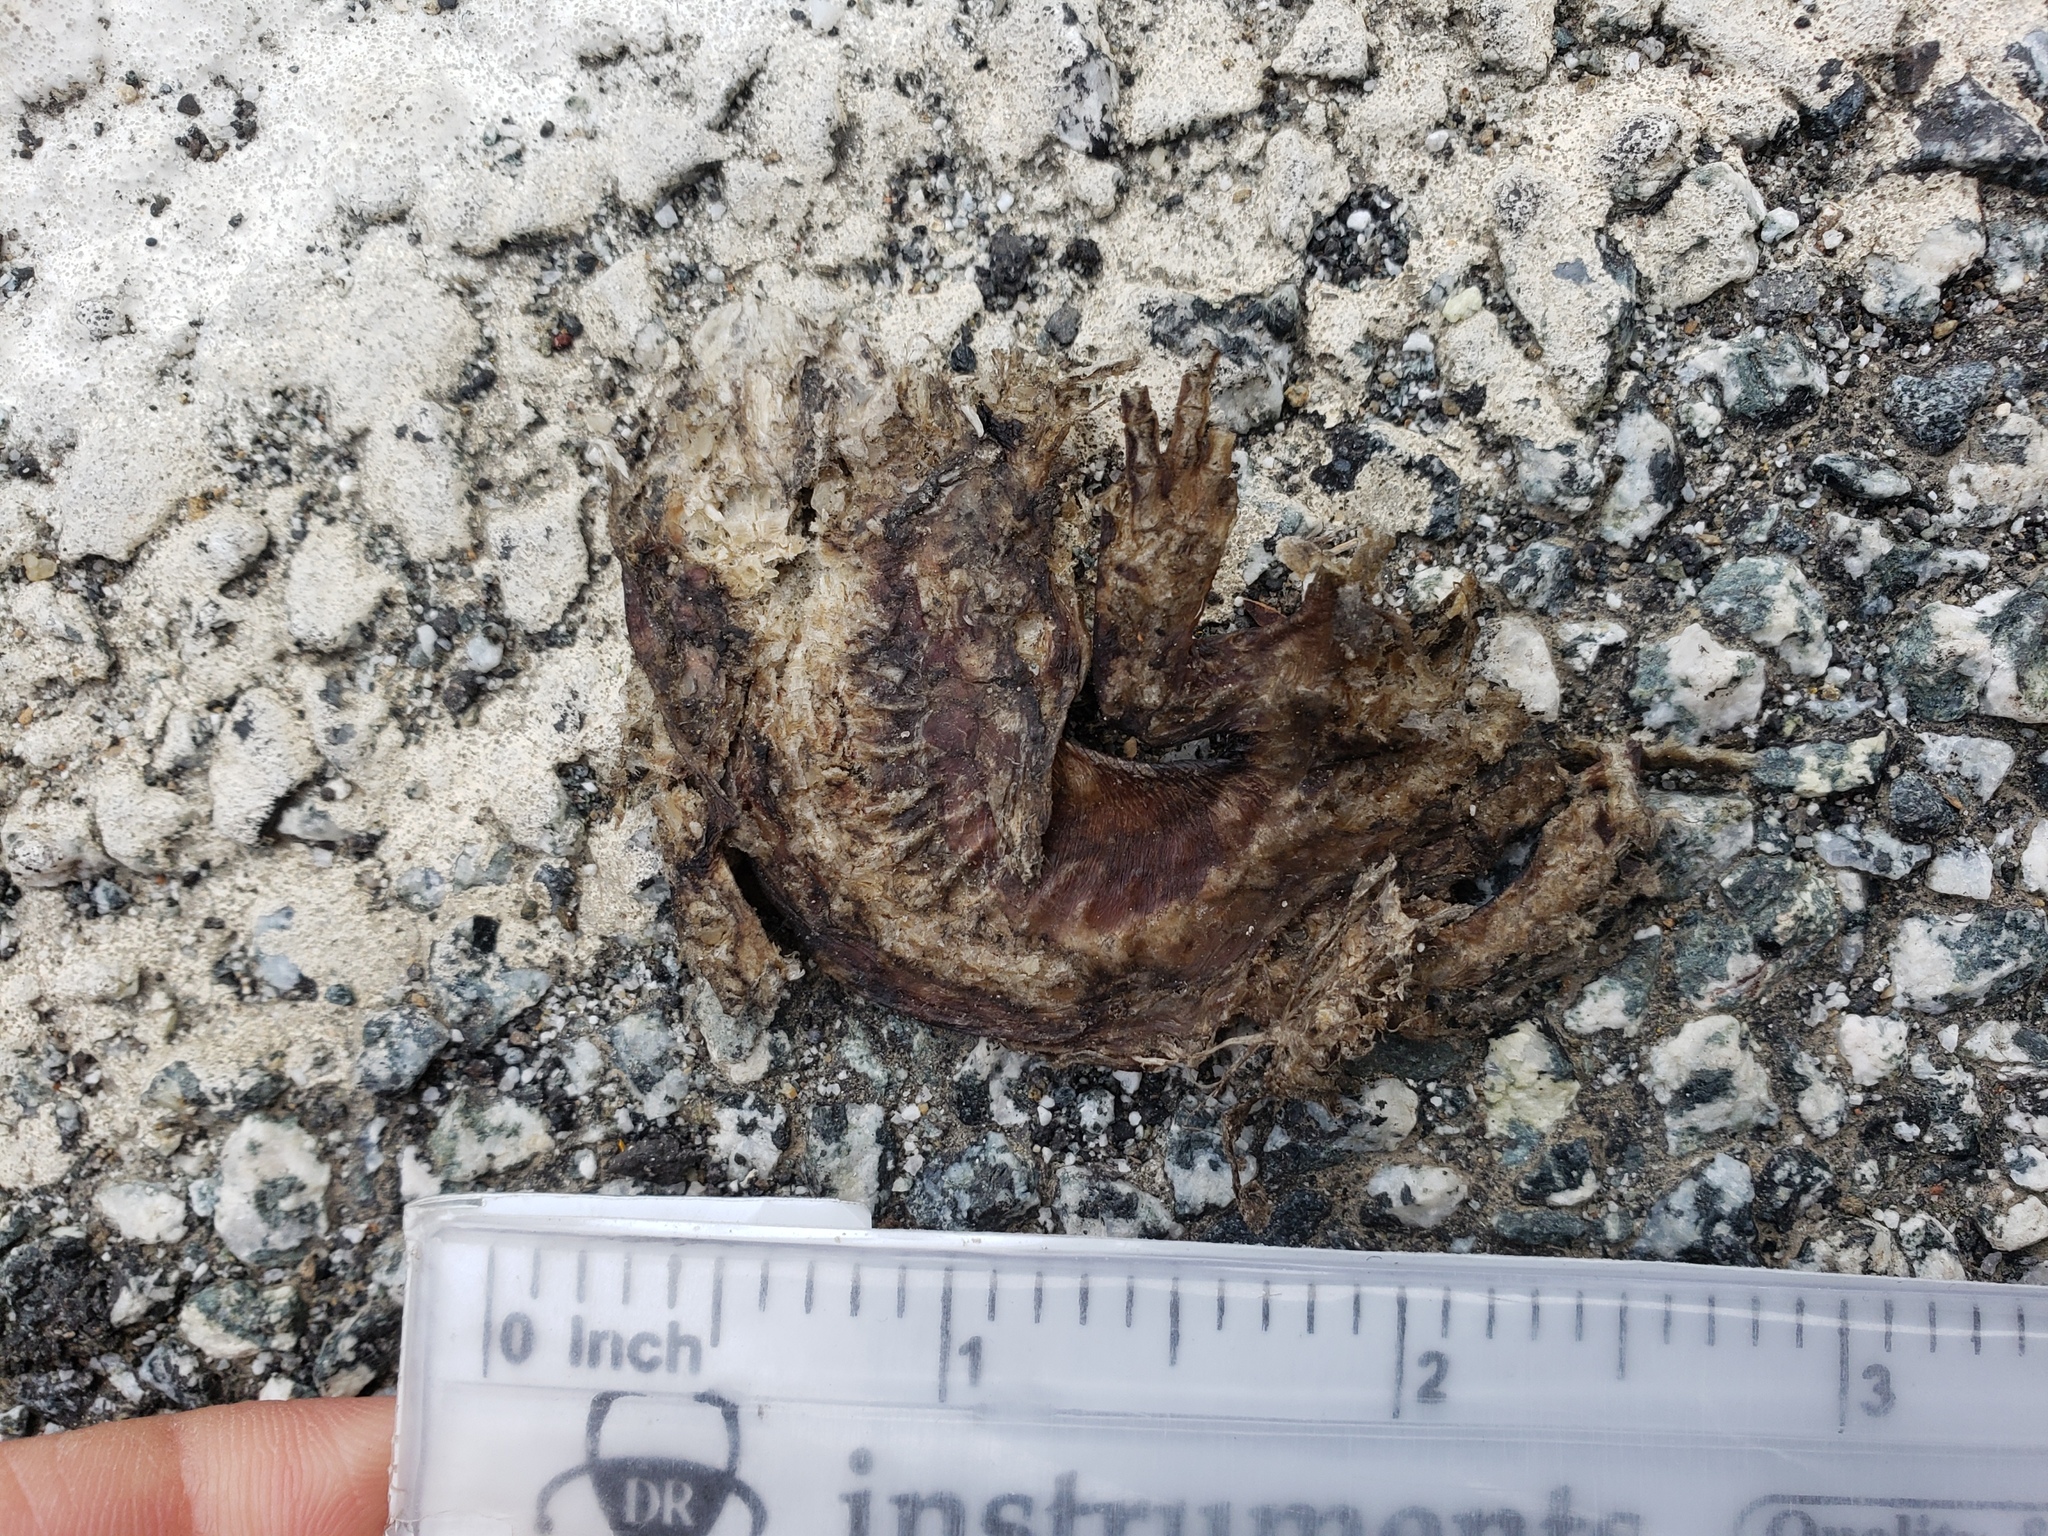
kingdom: Animalia
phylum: Chordata
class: Amphibia
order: Caudata
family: Salamandridae
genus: Taricha
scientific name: Taricha
